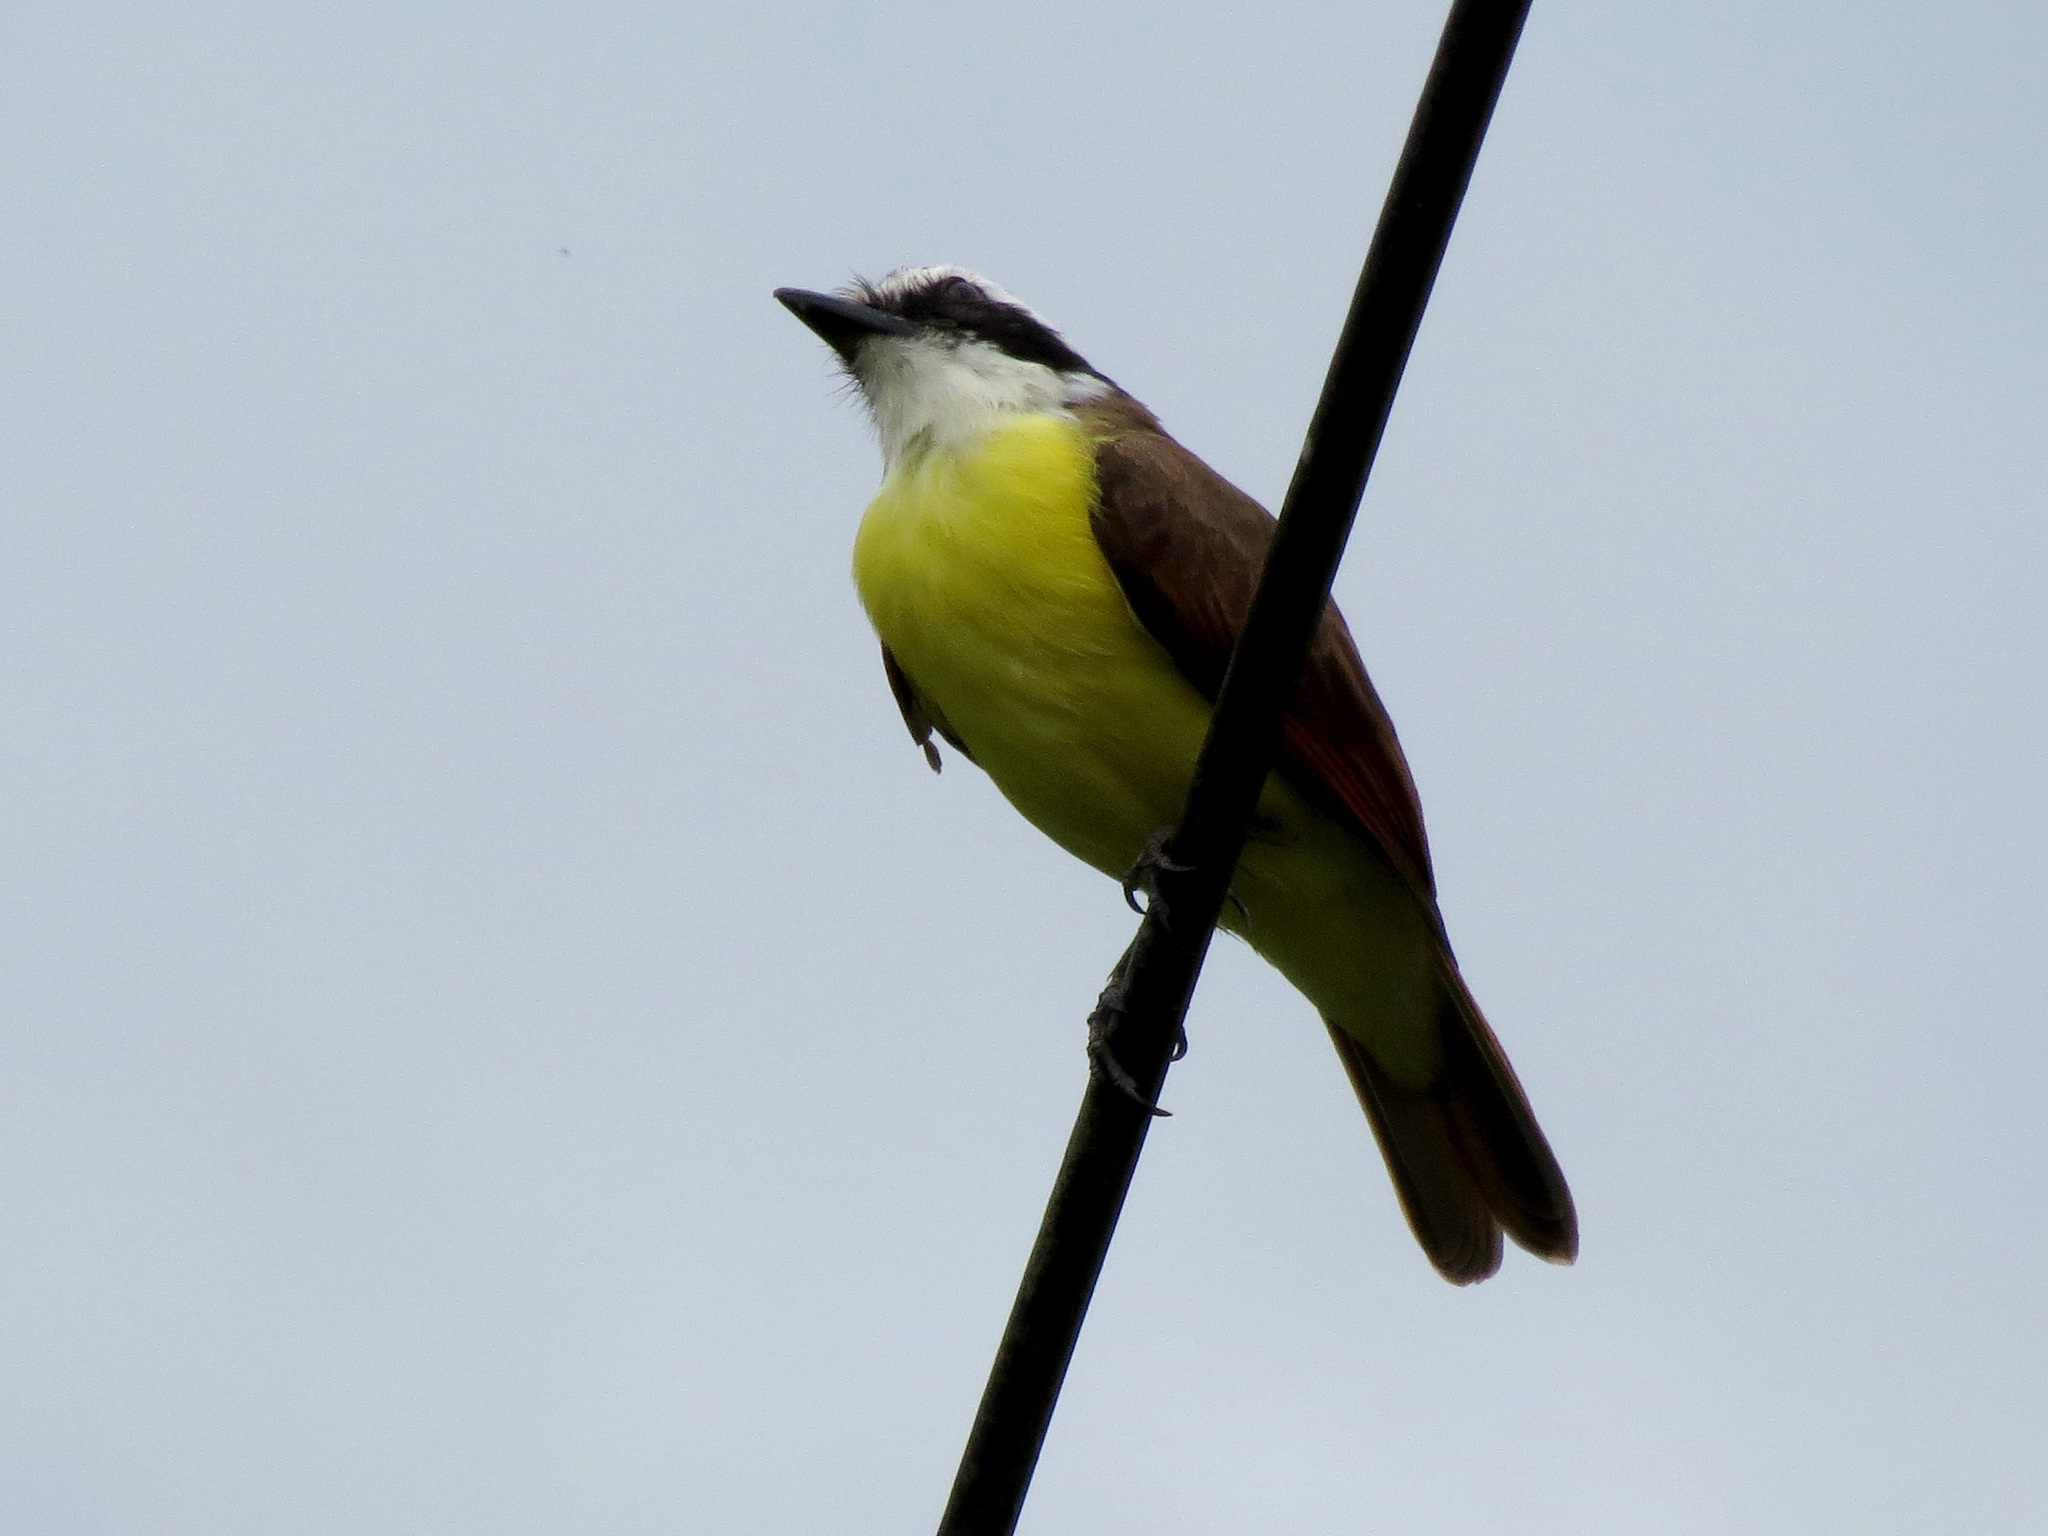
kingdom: Animalia
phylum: Chordata
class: Aves
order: Passeriformes
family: Tyrannidae
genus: Pitangus
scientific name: Pitangus sulphuratus
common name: Great kiskadee
